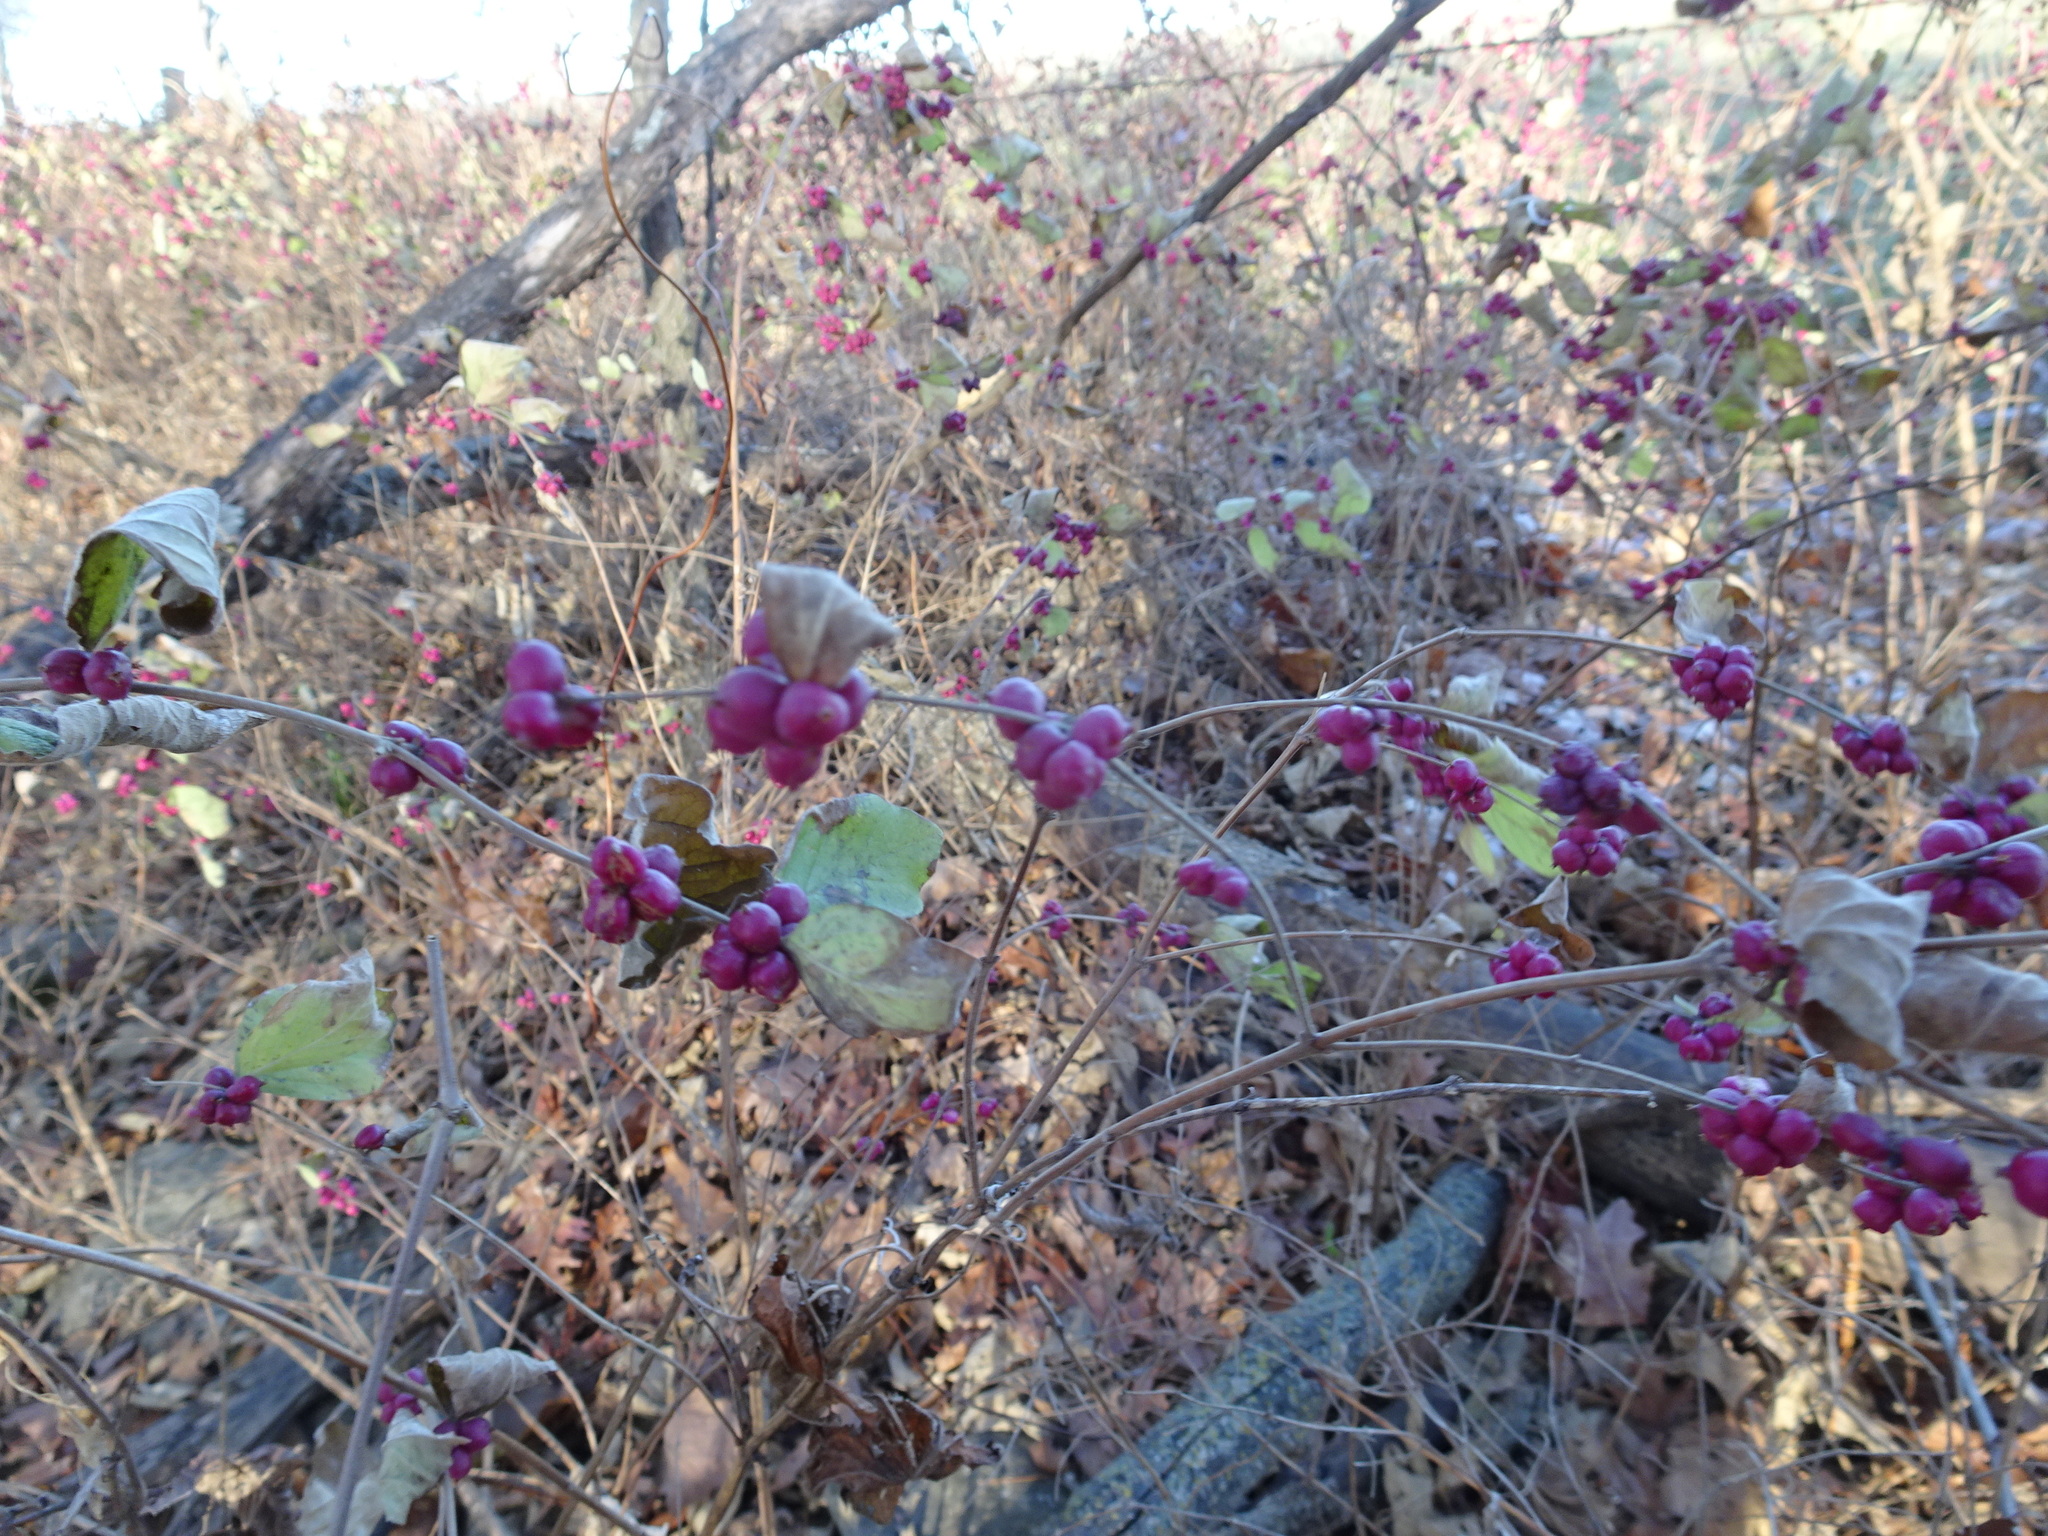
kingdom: Plantae
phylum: Tracheophyta
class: Magnoliopsida
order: Dipsacales
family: Caprifoliaceae
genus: Symphoricarpos
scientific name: Symphoricarpos orbiculatus
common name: Coralberry
